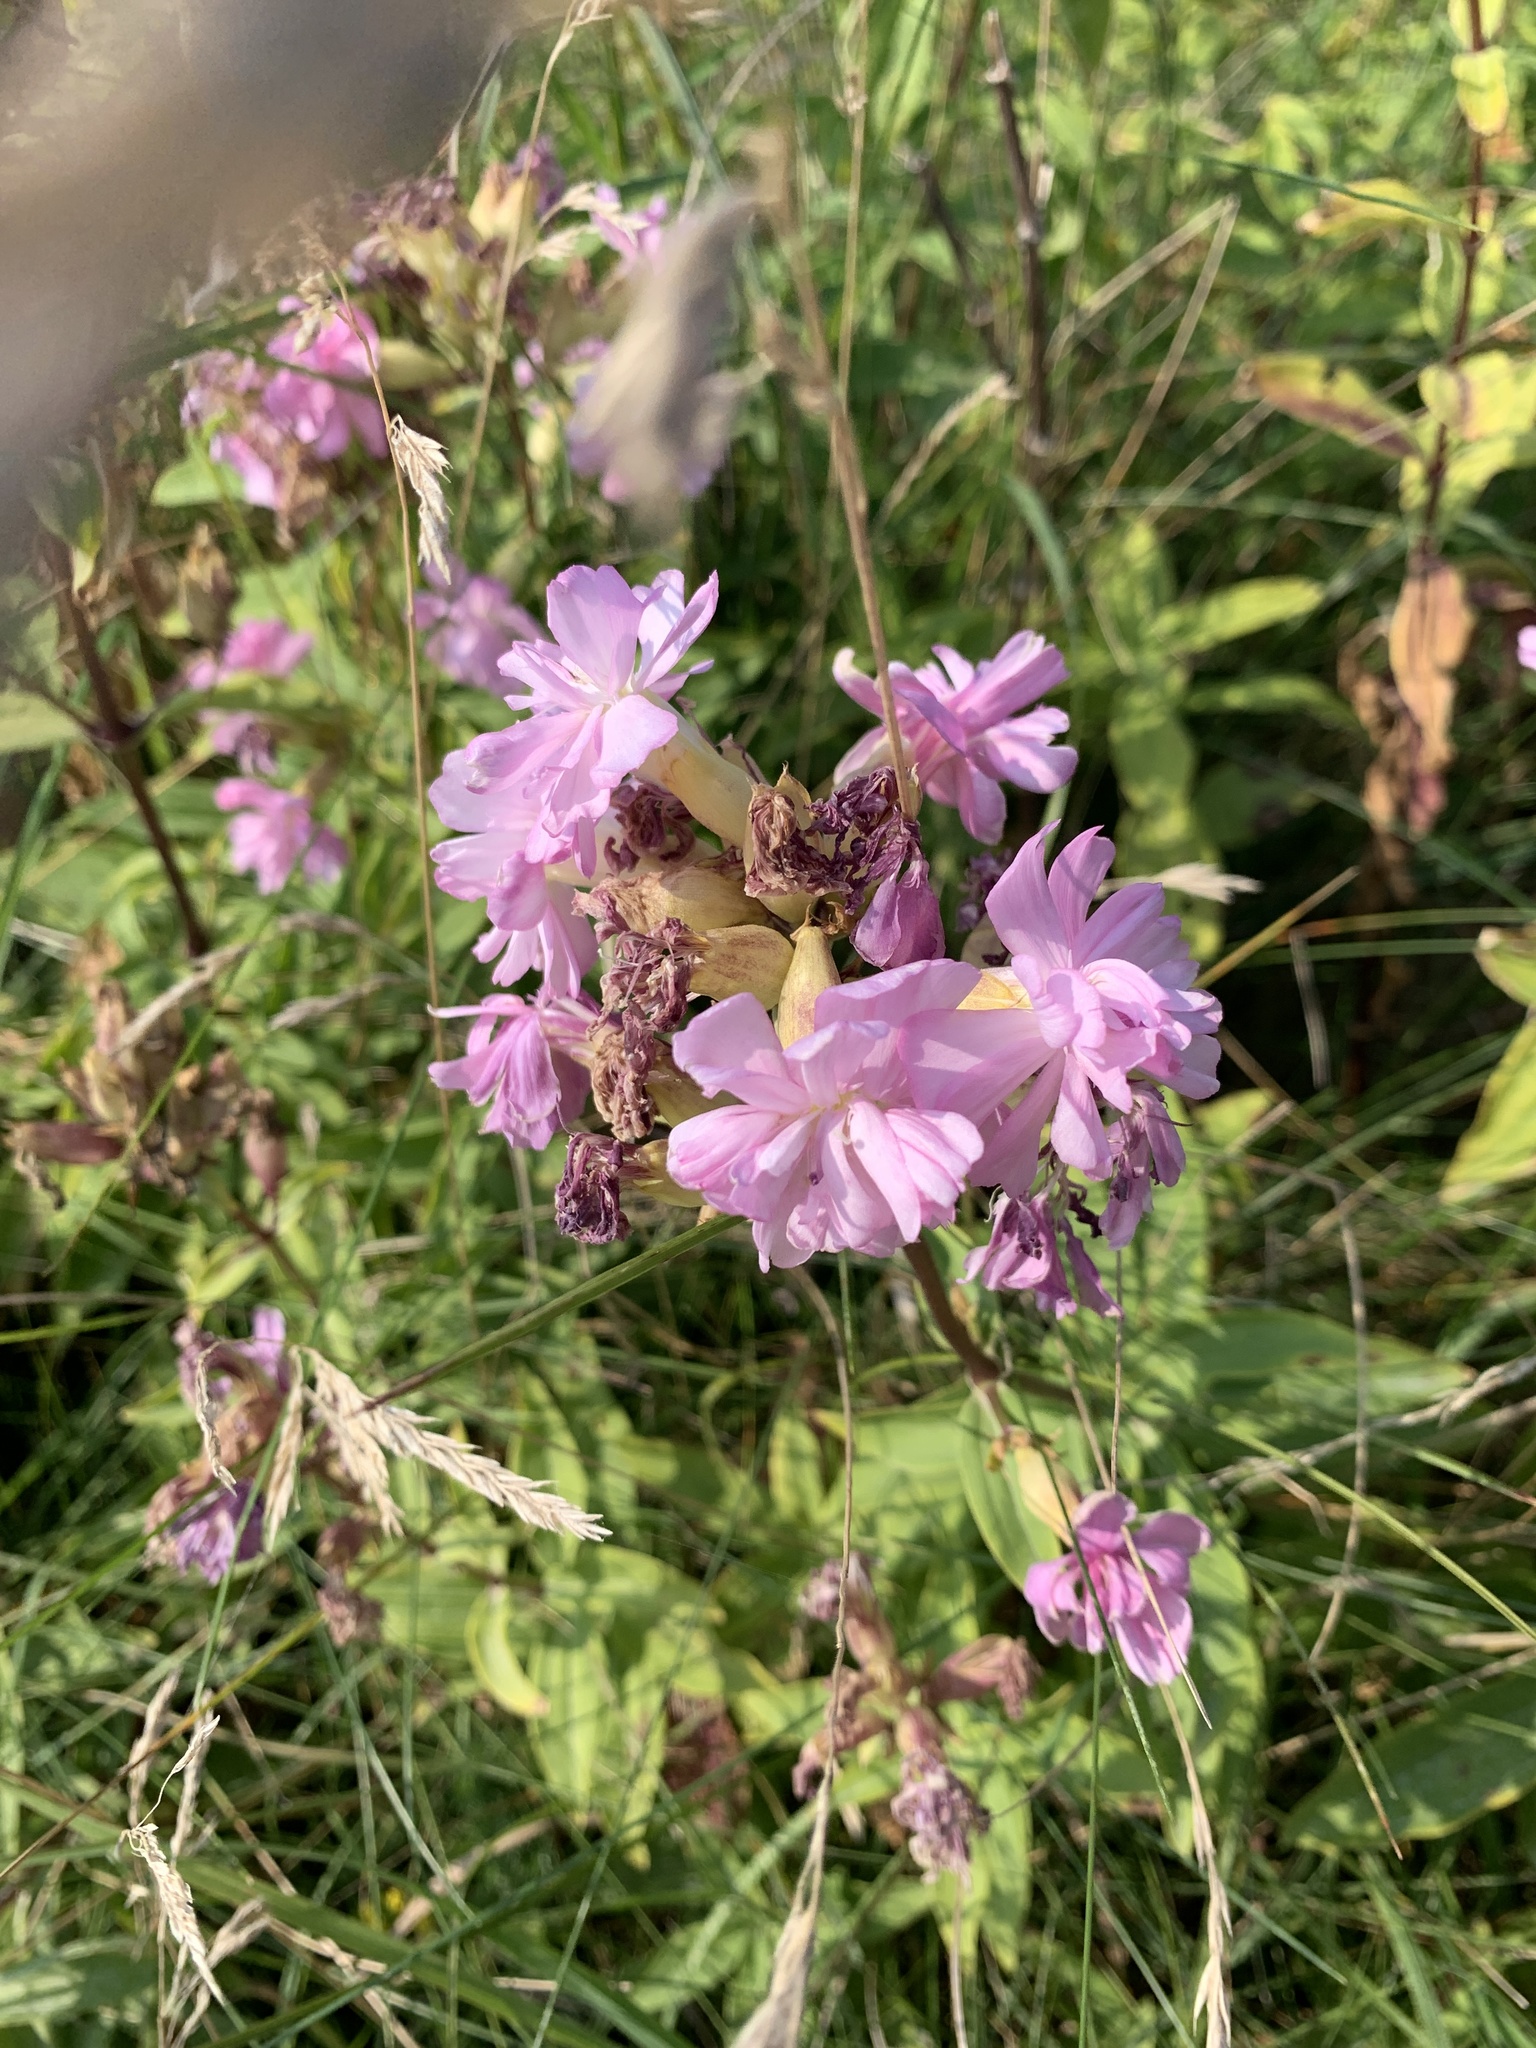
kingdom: Plantae
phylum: Tracheophyta
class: Magnoliopsida
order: Caryophyllales
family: Caryophyllaceae
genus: Saponaria
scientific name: Saponaria officinalis
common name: Soapwort
